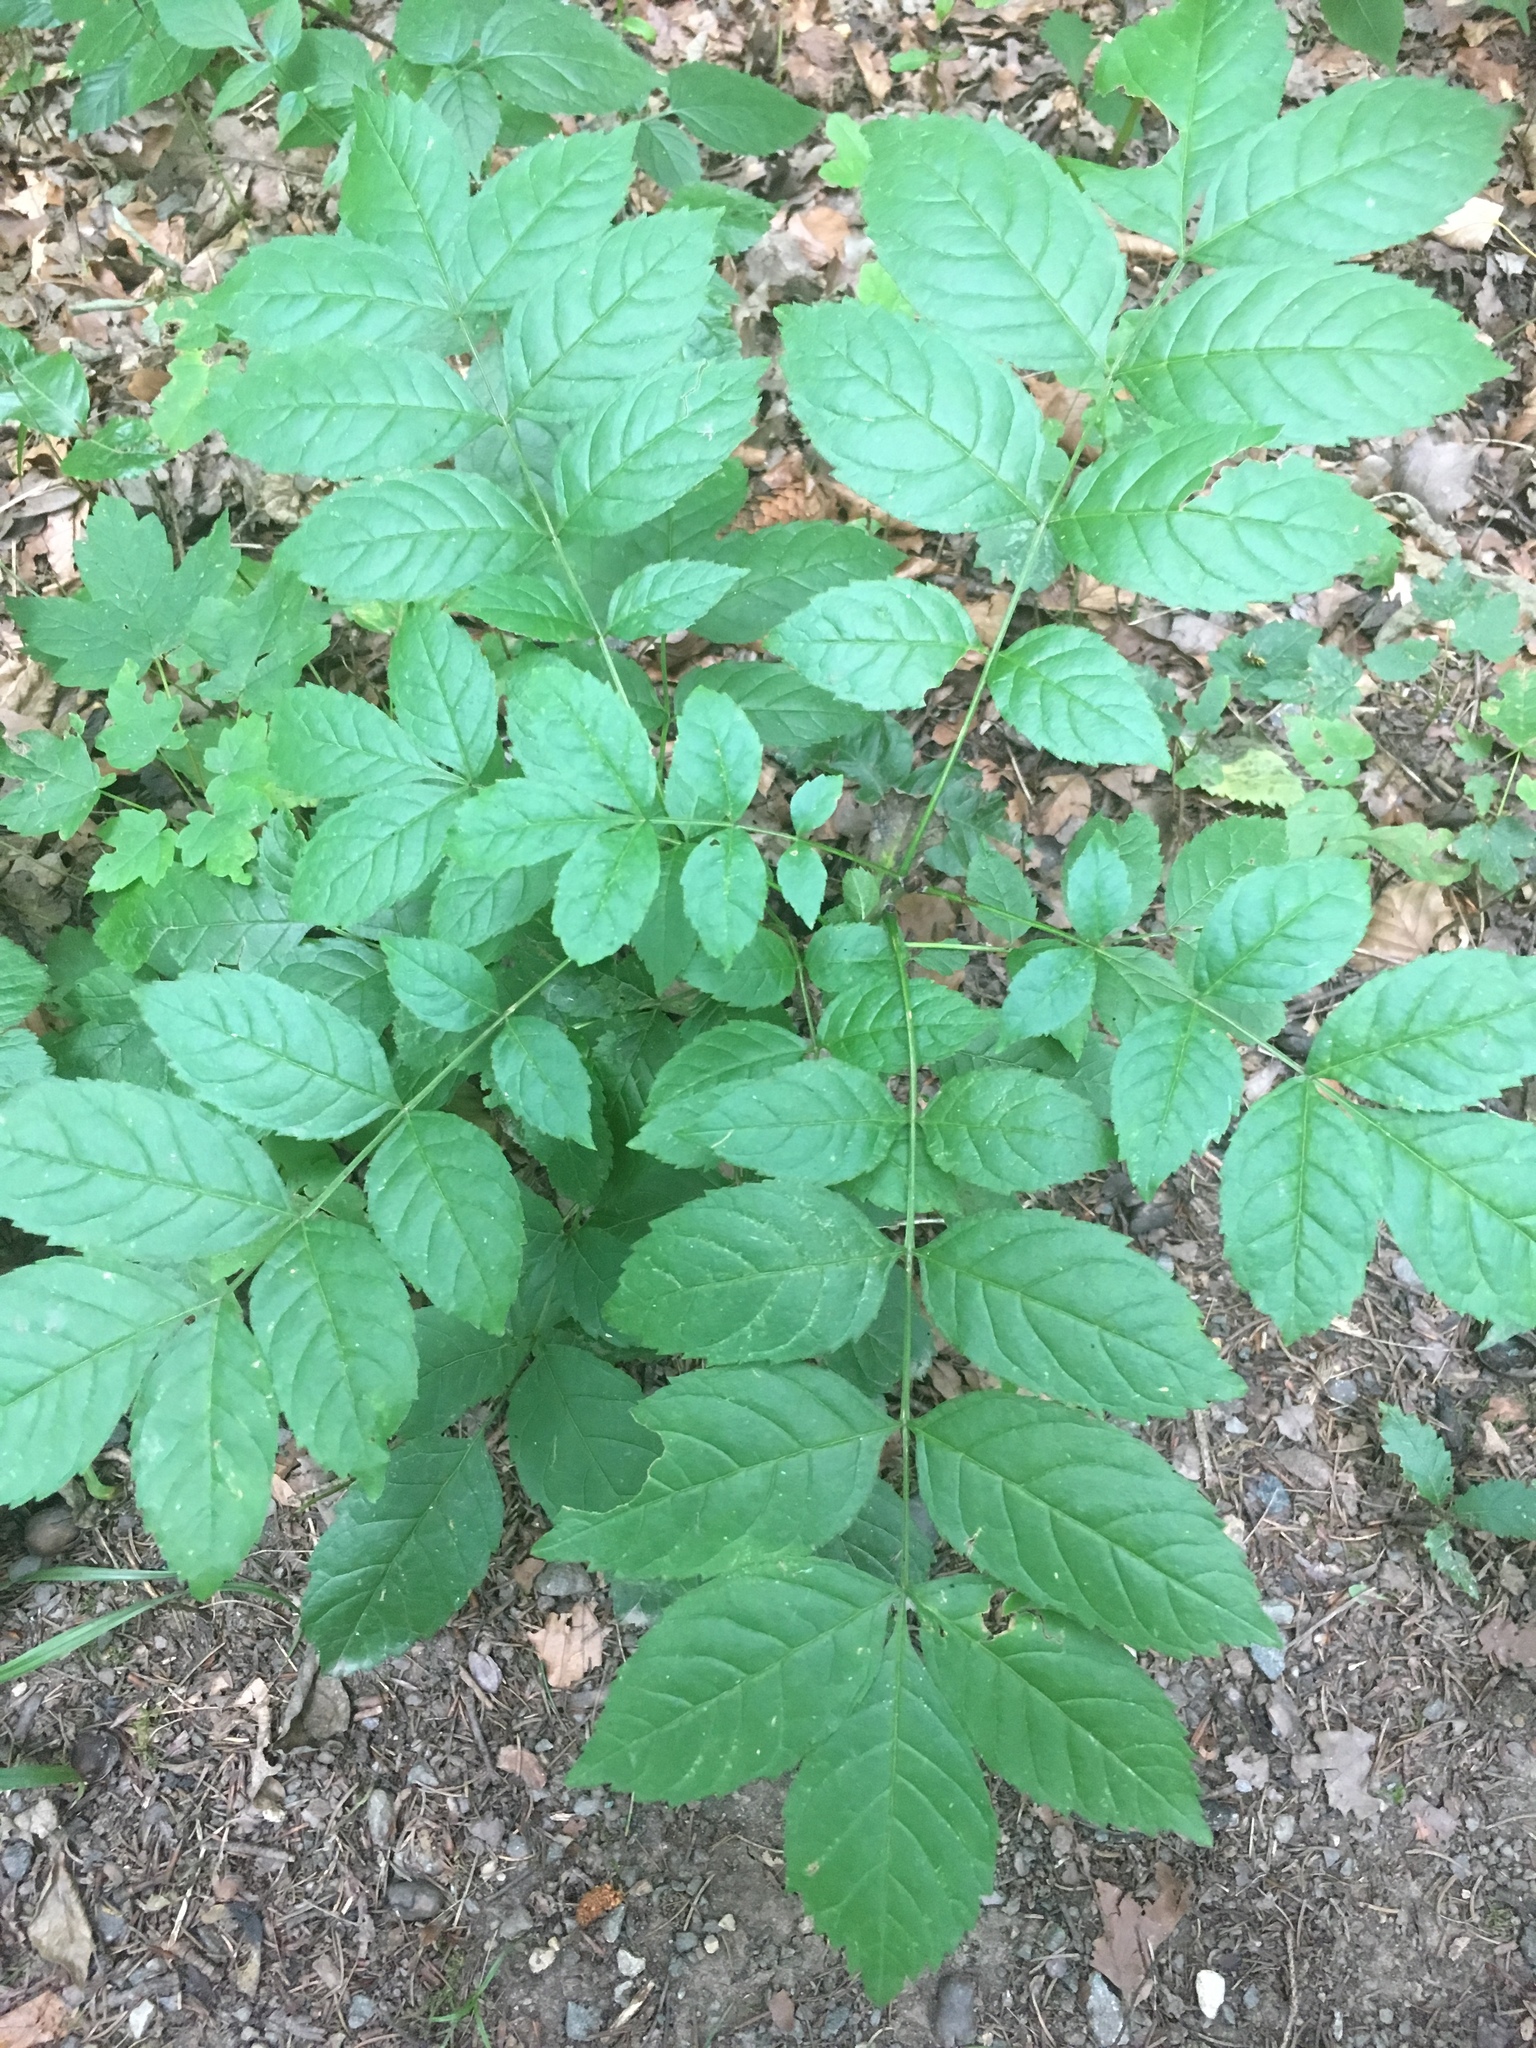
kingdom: Plantae
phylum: Tracheophyta
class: Magnoliopsida
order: Lamiales
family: Oleaceae
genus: Fraxinus
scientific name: Fraxinus excelsior
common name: European ash
